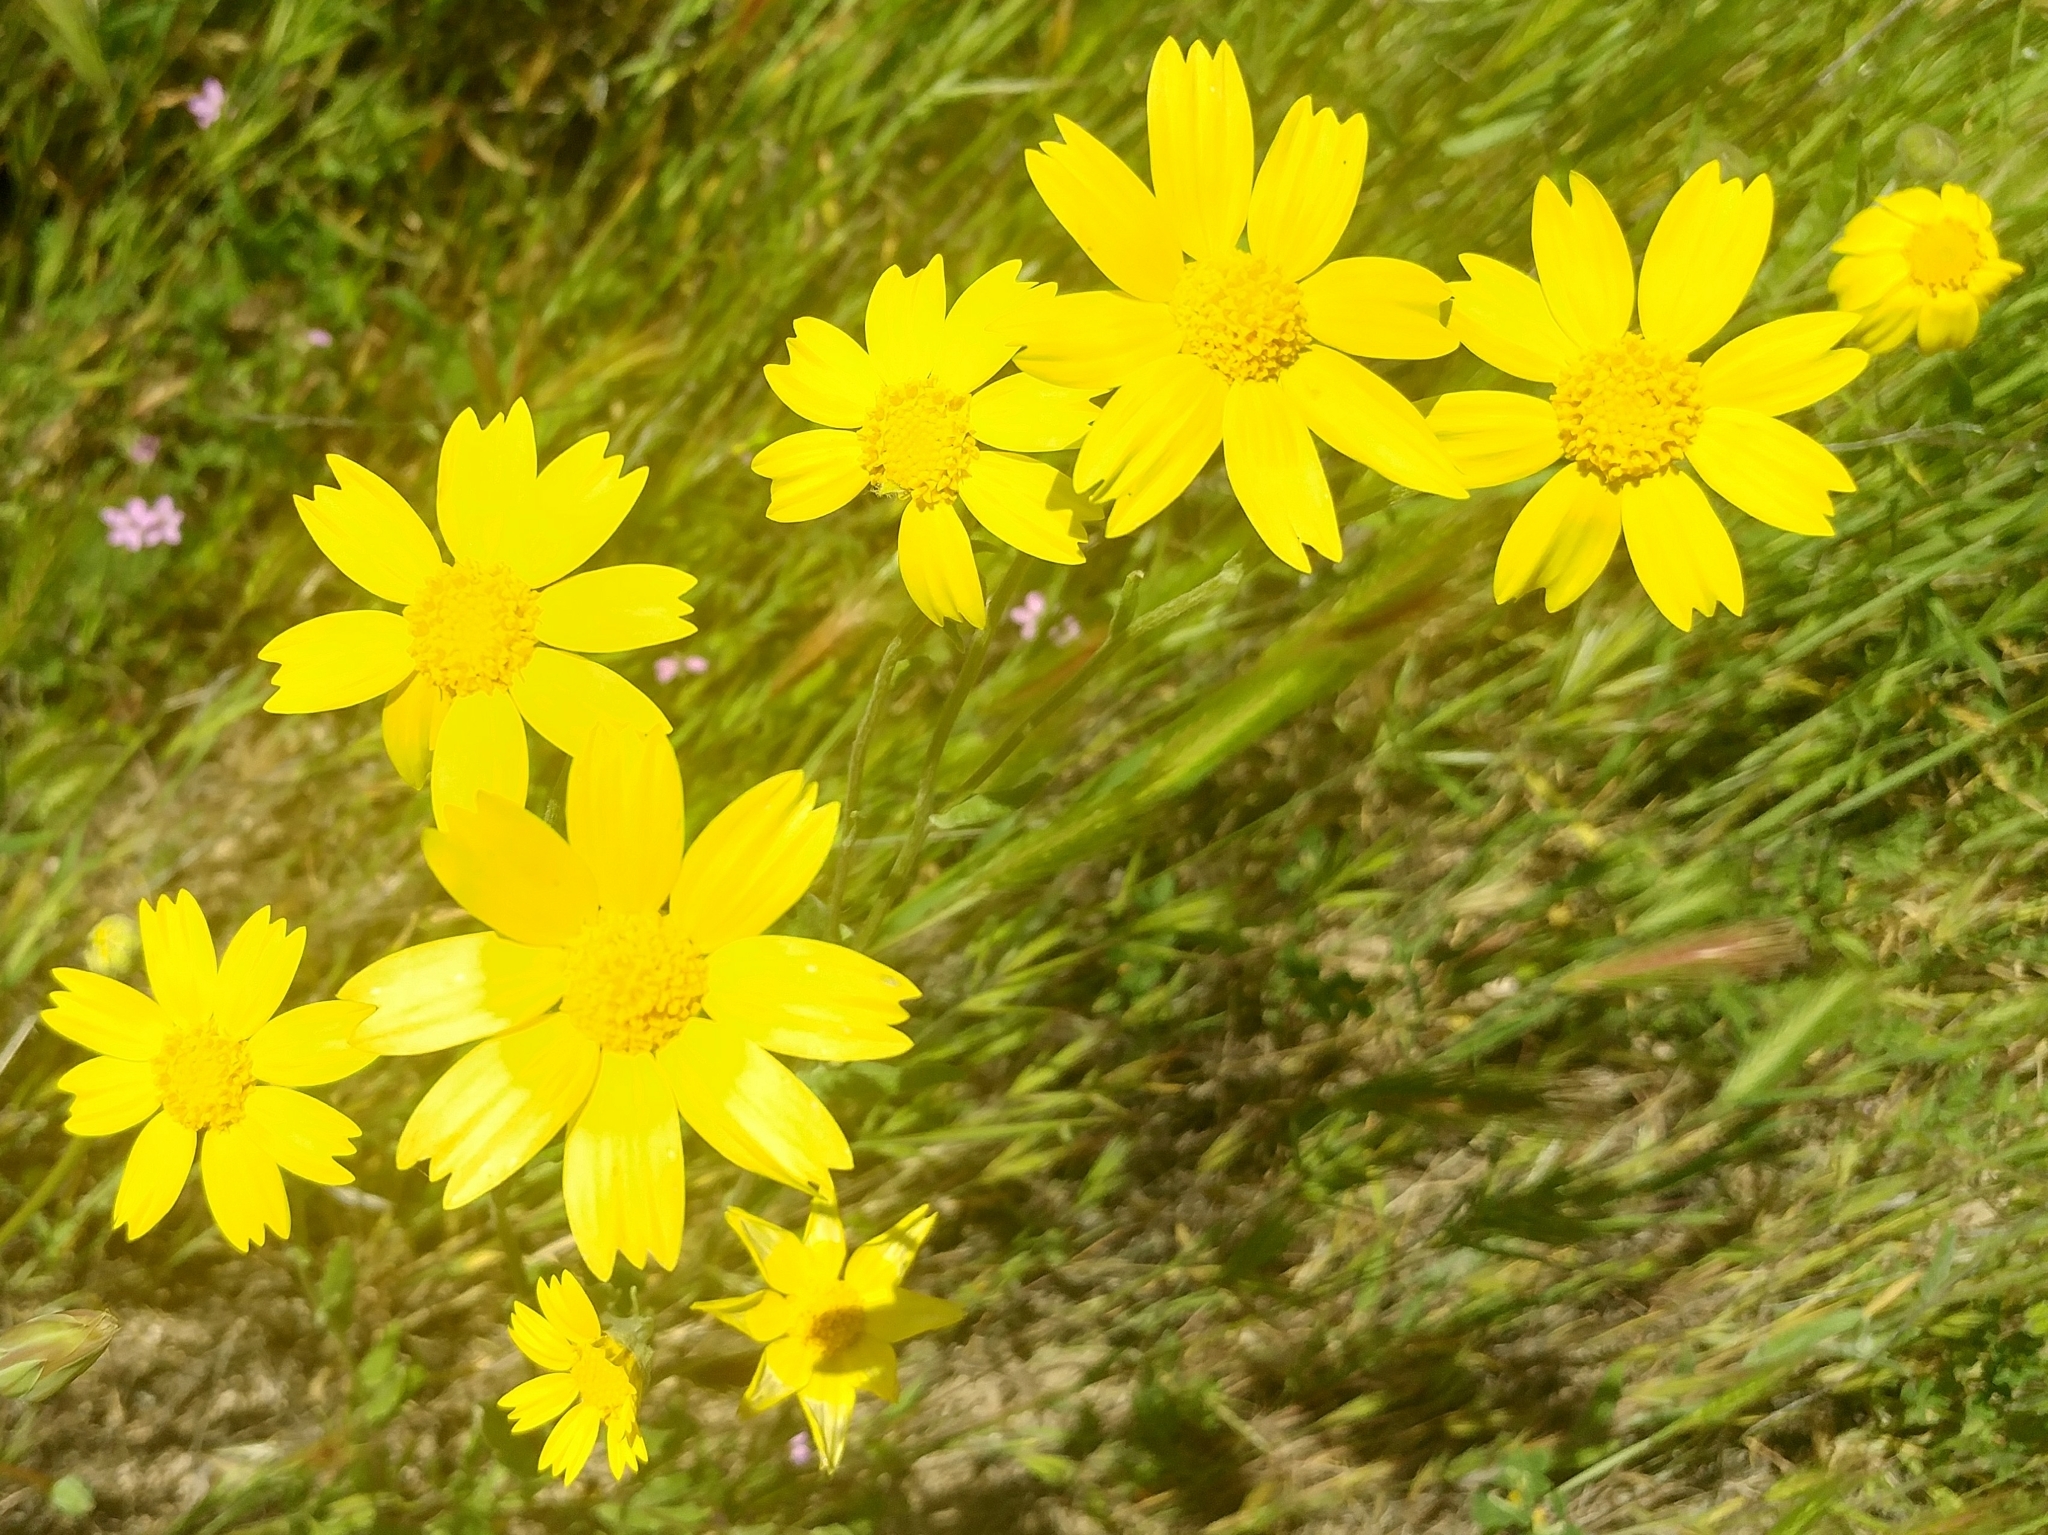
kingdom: Plantae
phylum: Tracheophyta
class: Magnoliopsida
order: Asterales
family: Asteraceae
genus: Monolopia
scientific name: Monolopia lanceolata
